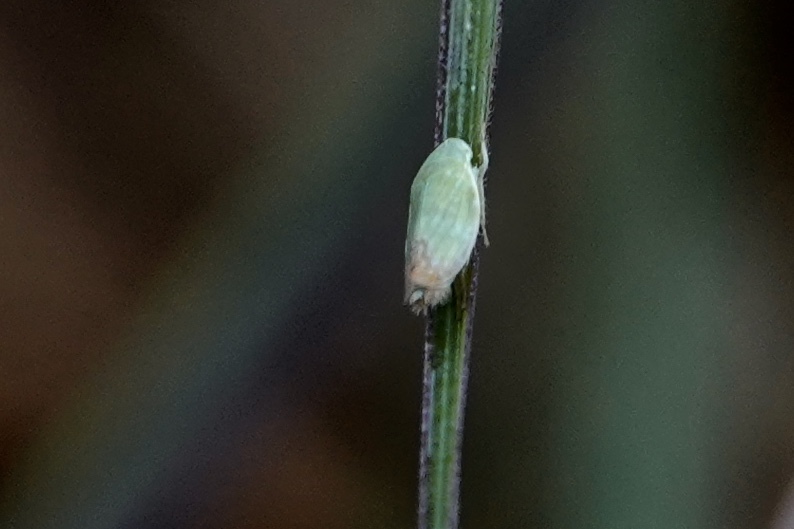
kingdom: Animalia
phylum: Arthropoda
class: Insecta
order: Hemiptera
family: Cicadellidae
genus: Memnonia
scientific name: Memnonia flavida
